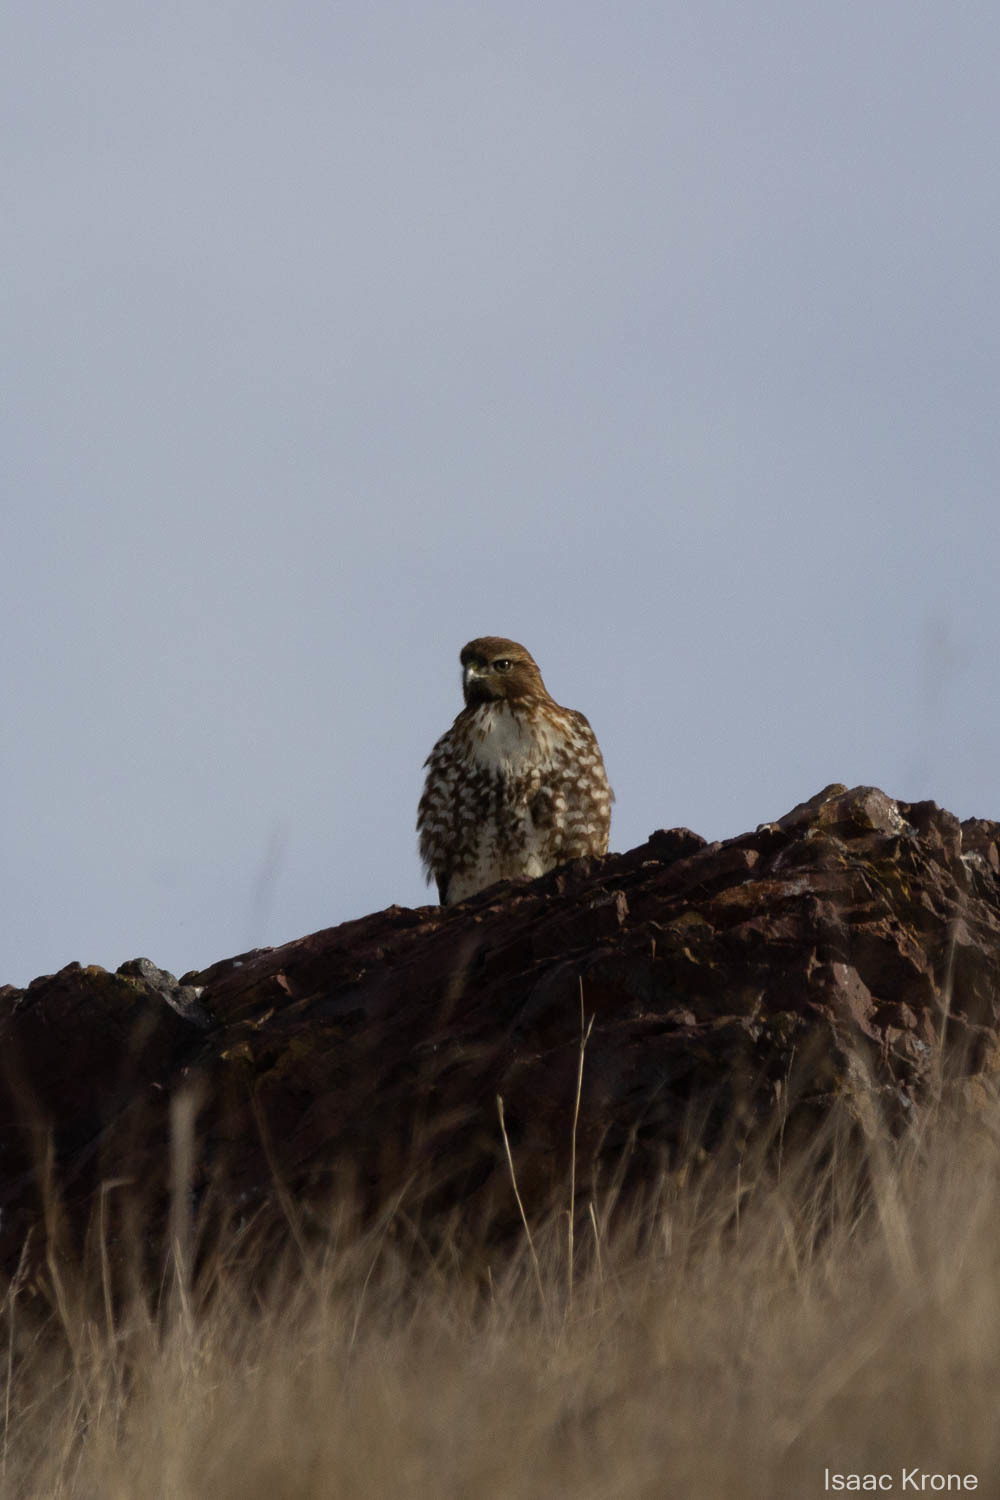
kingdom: Animalia
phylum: Chordata
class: Aves
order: Accipitriformes
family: Accipitridae
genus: Buteo
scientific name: Buteo jamaicensis
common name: Red-tailed hawk
